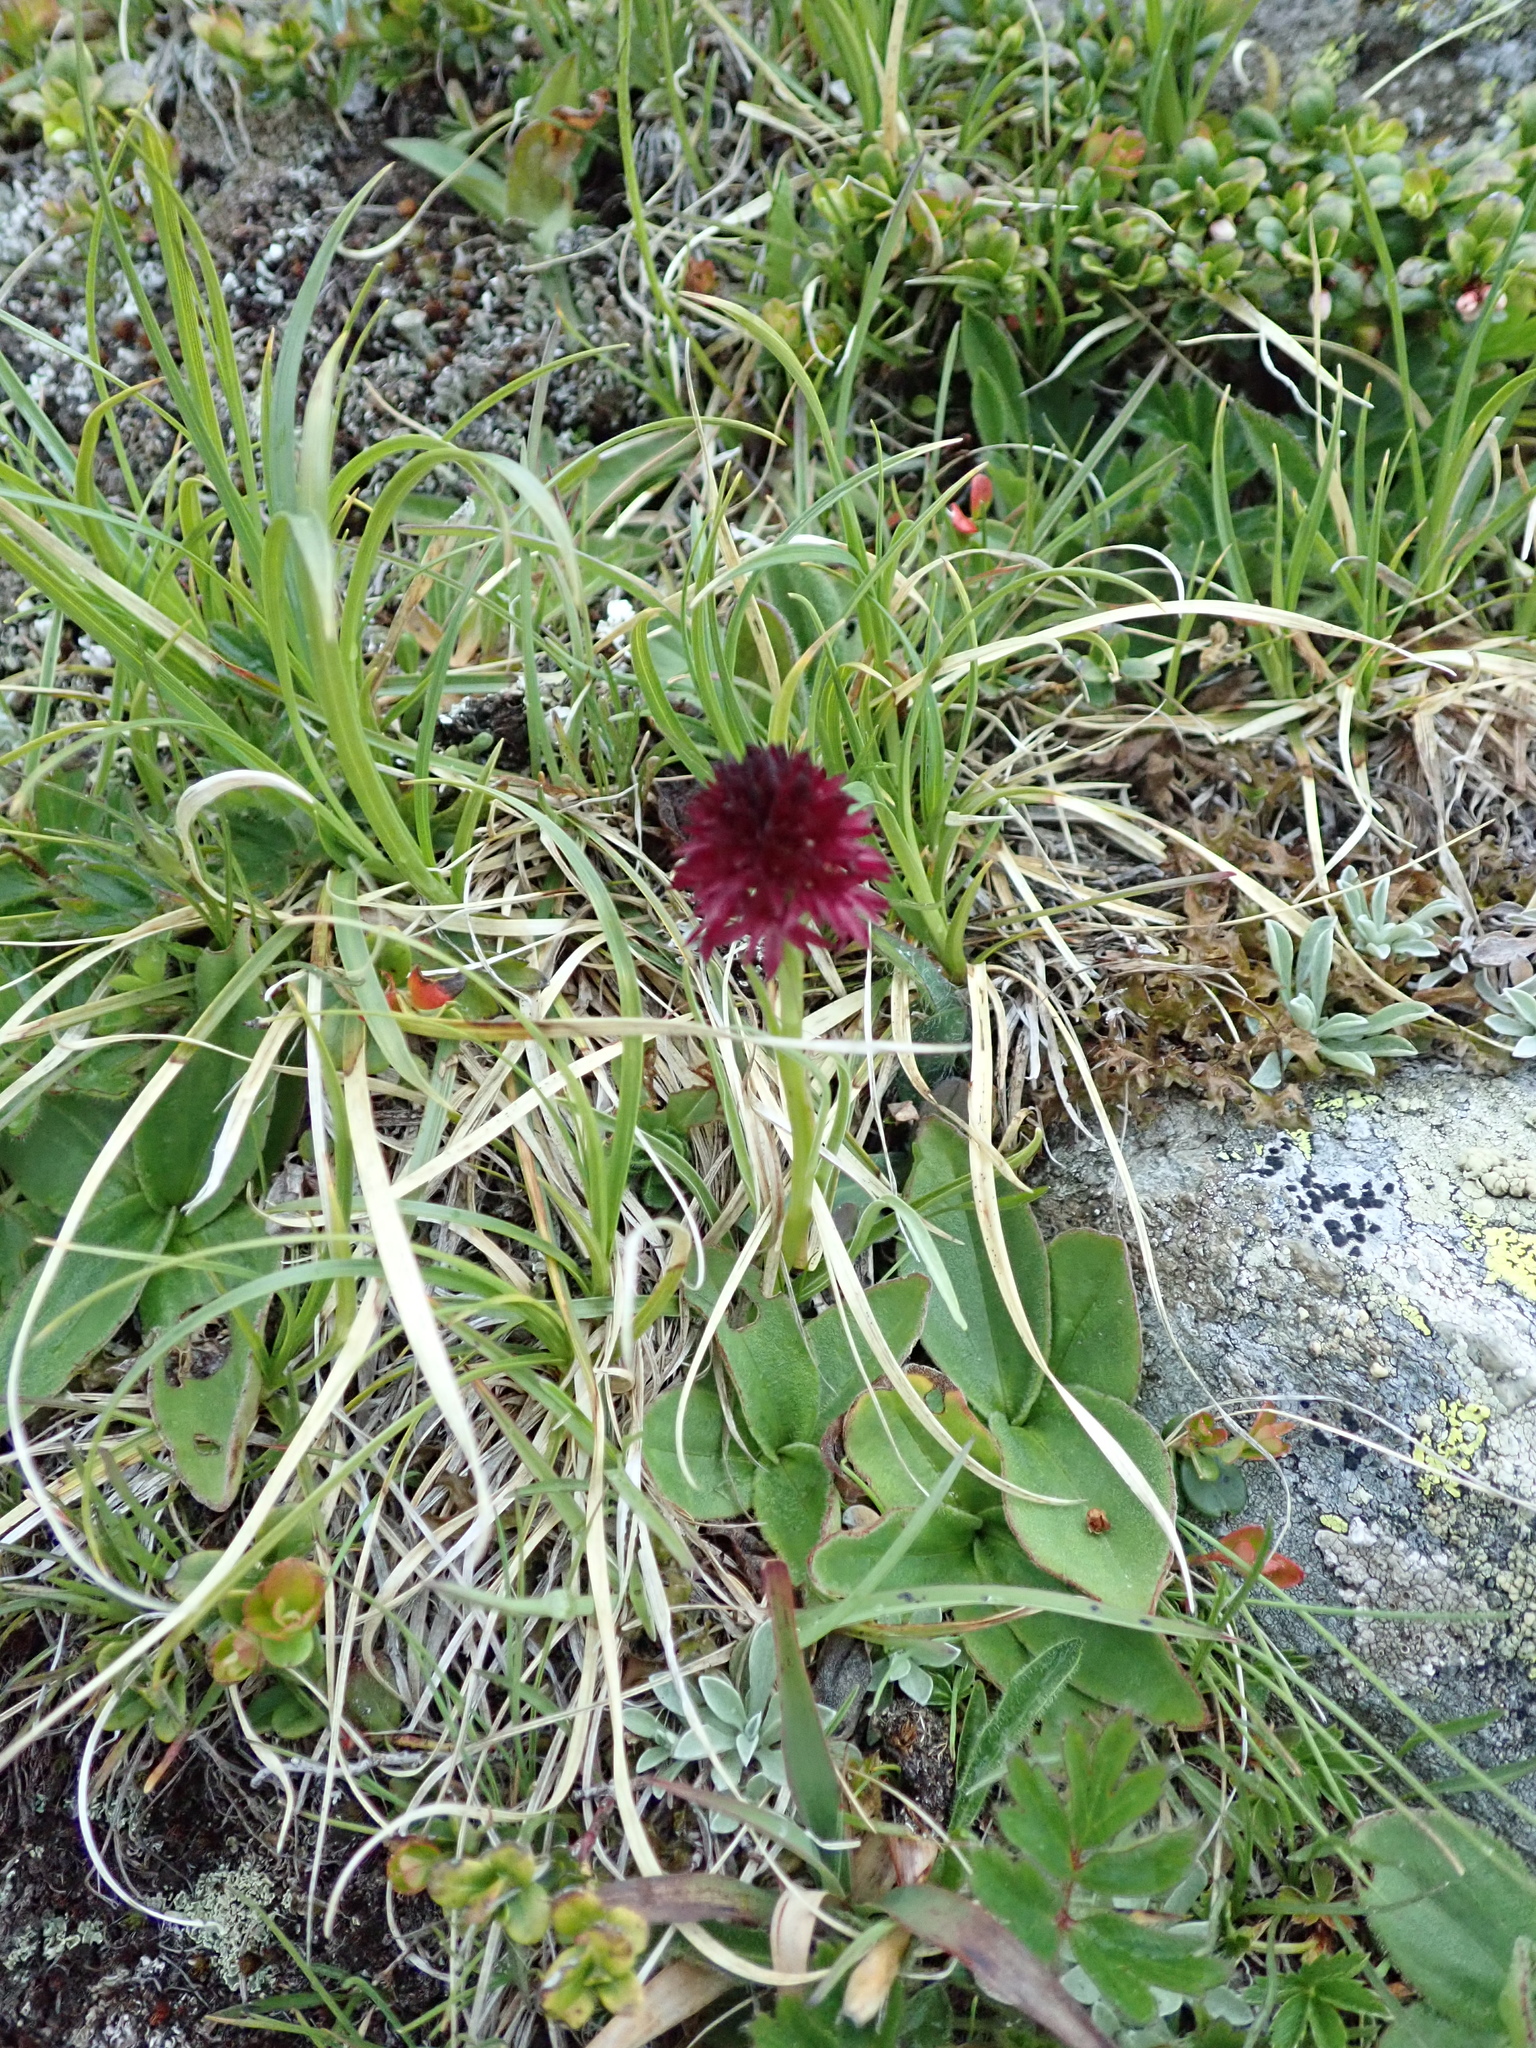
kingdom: Plantae
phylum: Tracheophyta
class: Liliopsida
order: Asparagales
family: Orchidaceae
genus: Gymnadenia
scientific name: Gymnadenia rhellicani
